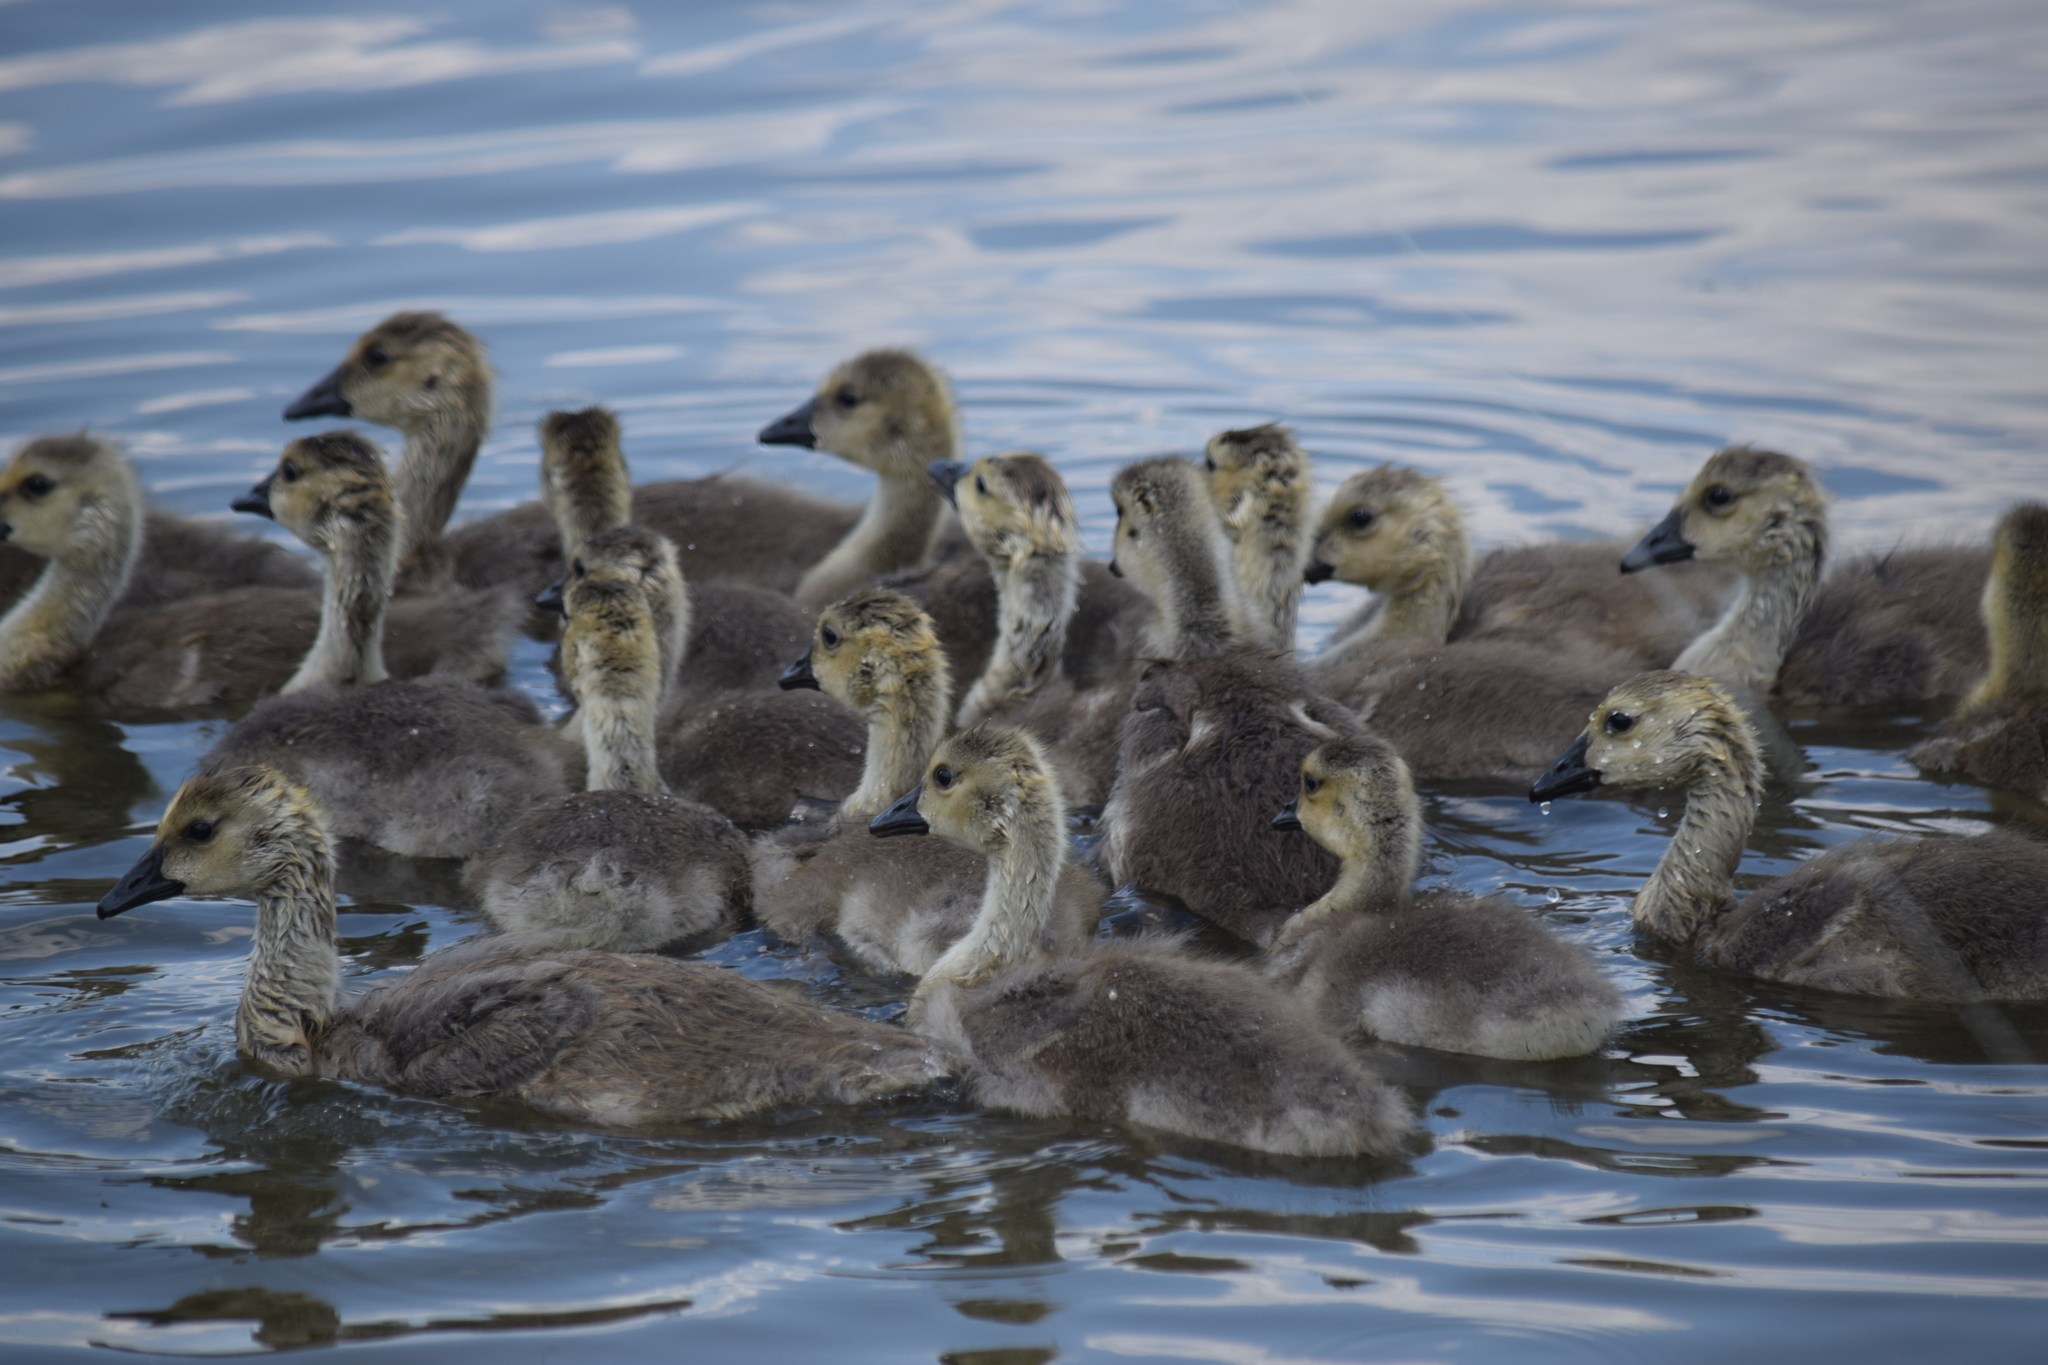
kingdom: Animalia
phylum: Chordata
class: Aves
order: Anseriformes
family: Anatidae
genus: Branta
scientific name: Branta canadensis
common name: Canada goose
